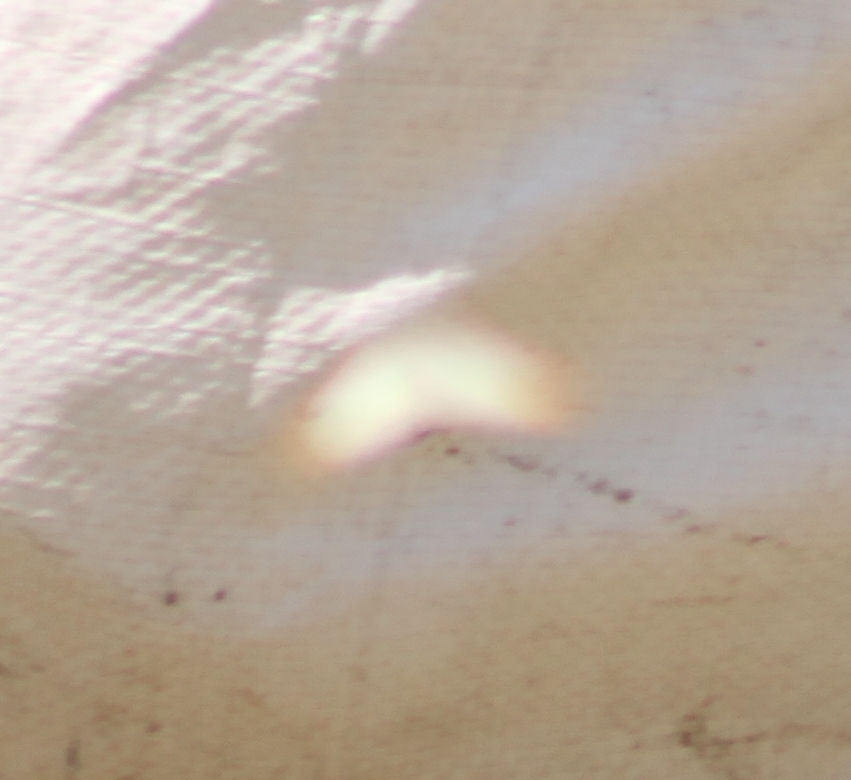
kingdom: Animalia
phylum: Arthropoda
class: Insecta
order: Lepidoptera
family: Pieridae
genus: Anthocharis
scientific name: Anthocharis cardamines
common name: Orange-tip
